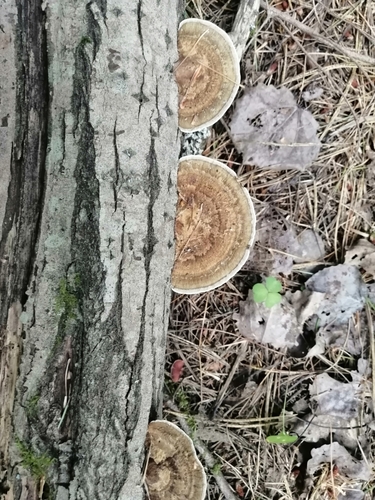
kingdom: Fungi
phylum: Basidiomycota
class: Agaricomycetes
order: Polyporales
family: Polyporaceae
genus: Daedaleopsis
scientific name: Daedaleopsis confragosa
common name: Blushing bracket
